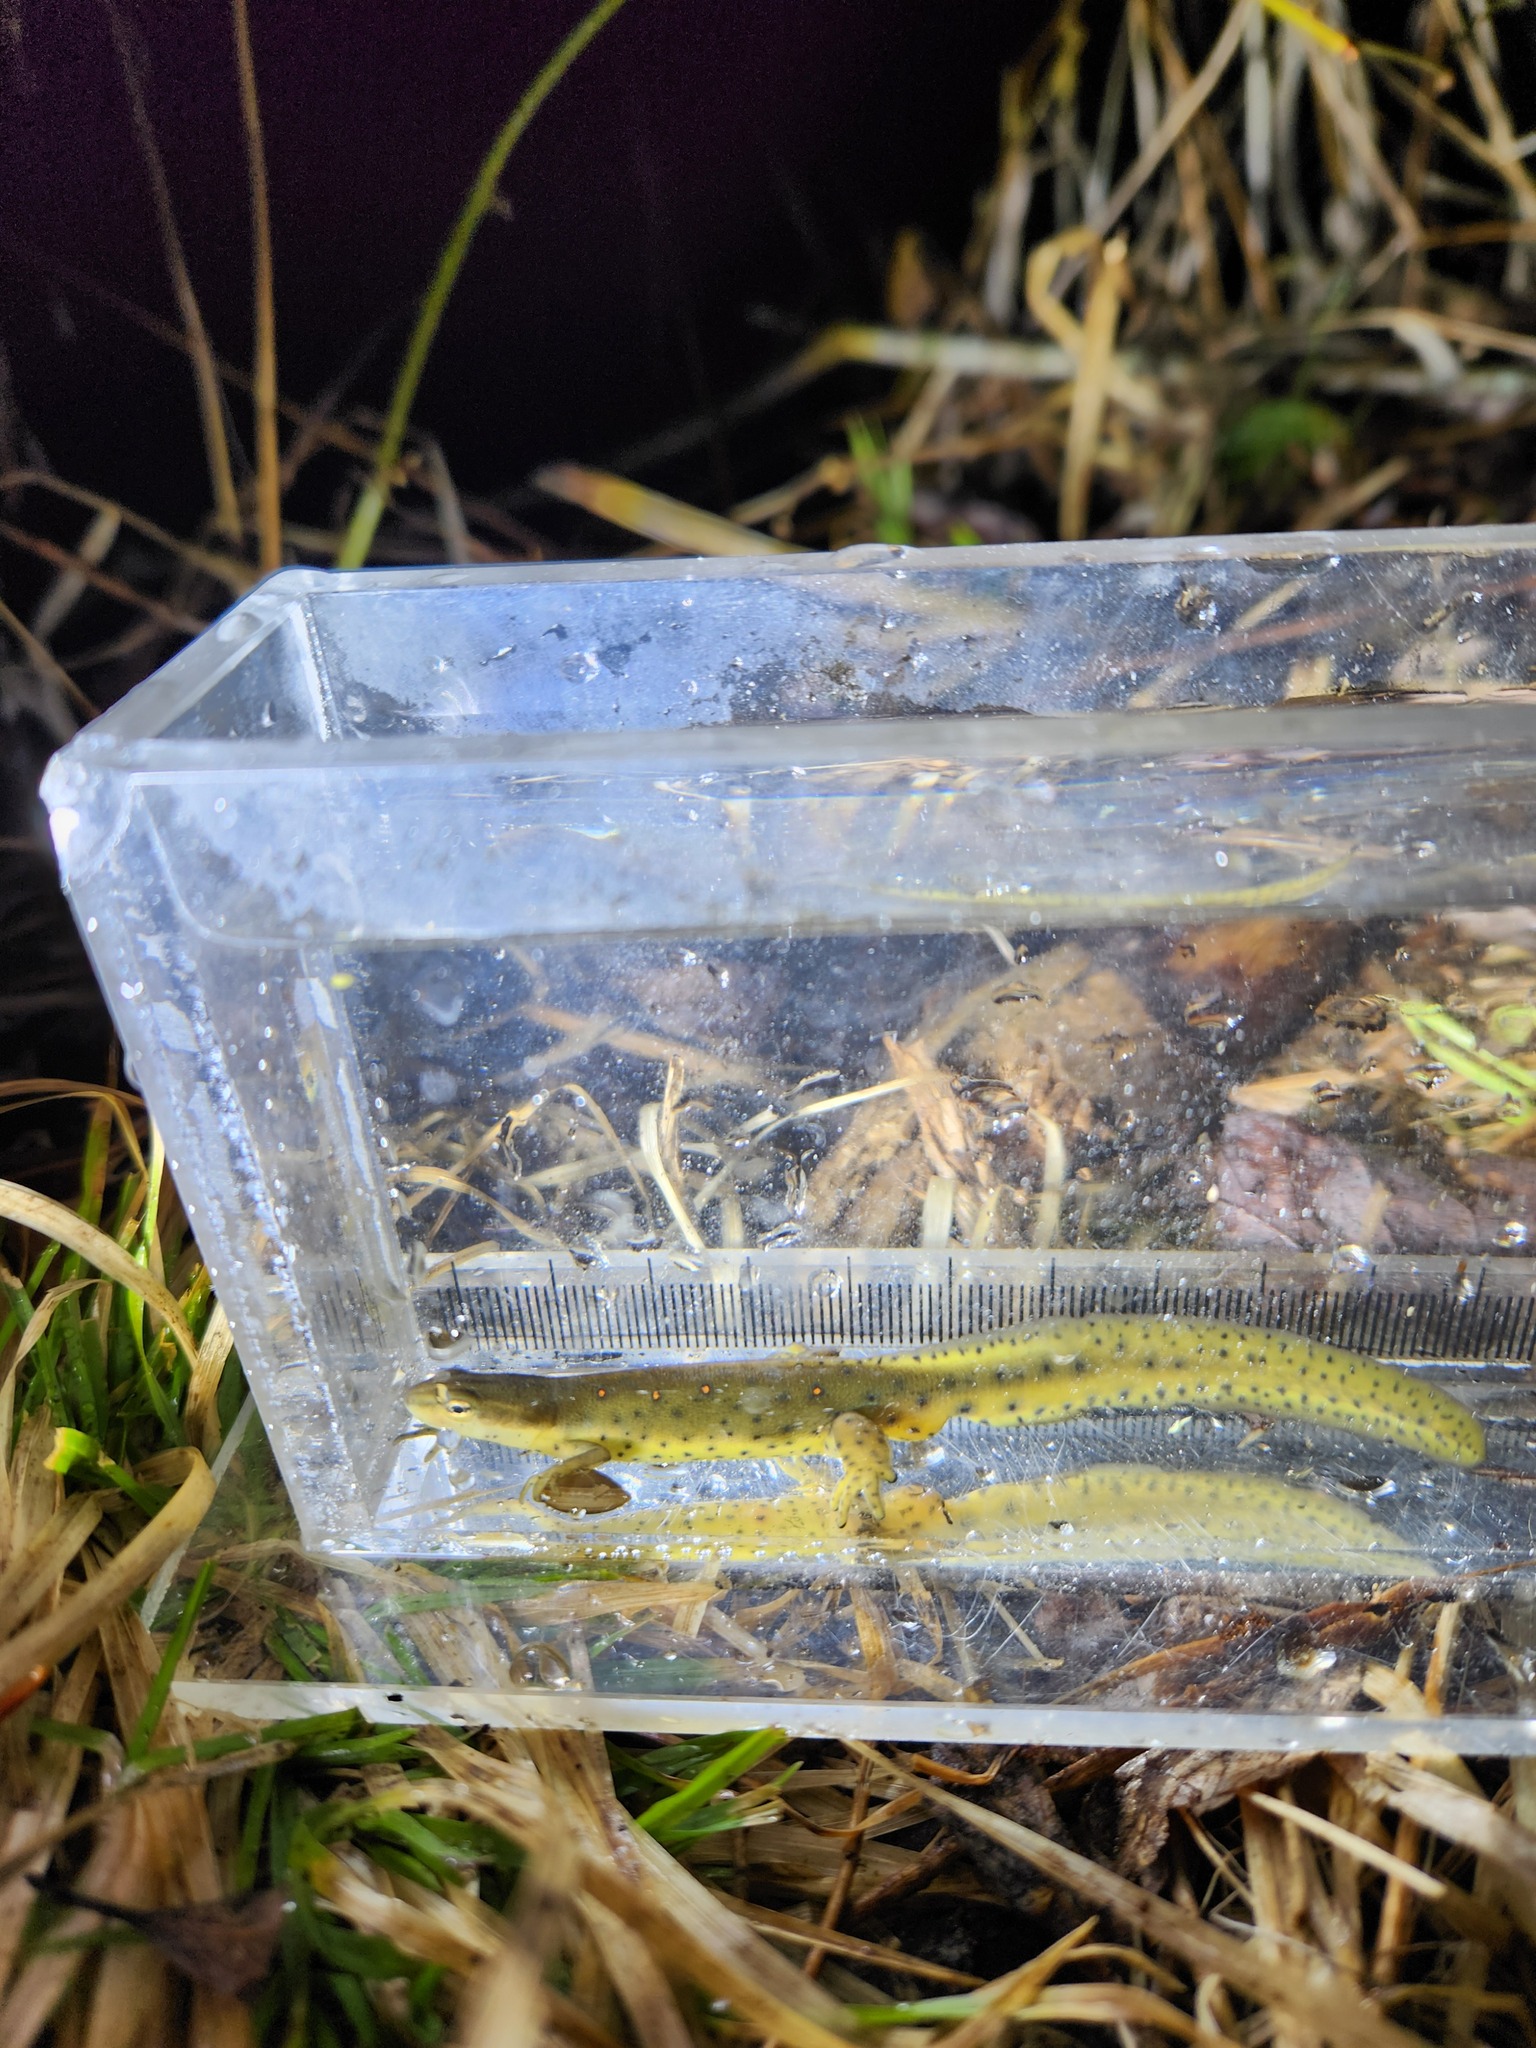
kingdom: Animalia
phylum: Chordata
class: Amphibia
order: Caudata
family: Salamandridae
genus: Notophthalmus
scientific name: Notophthalmus viridescens
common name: Eastern newt
